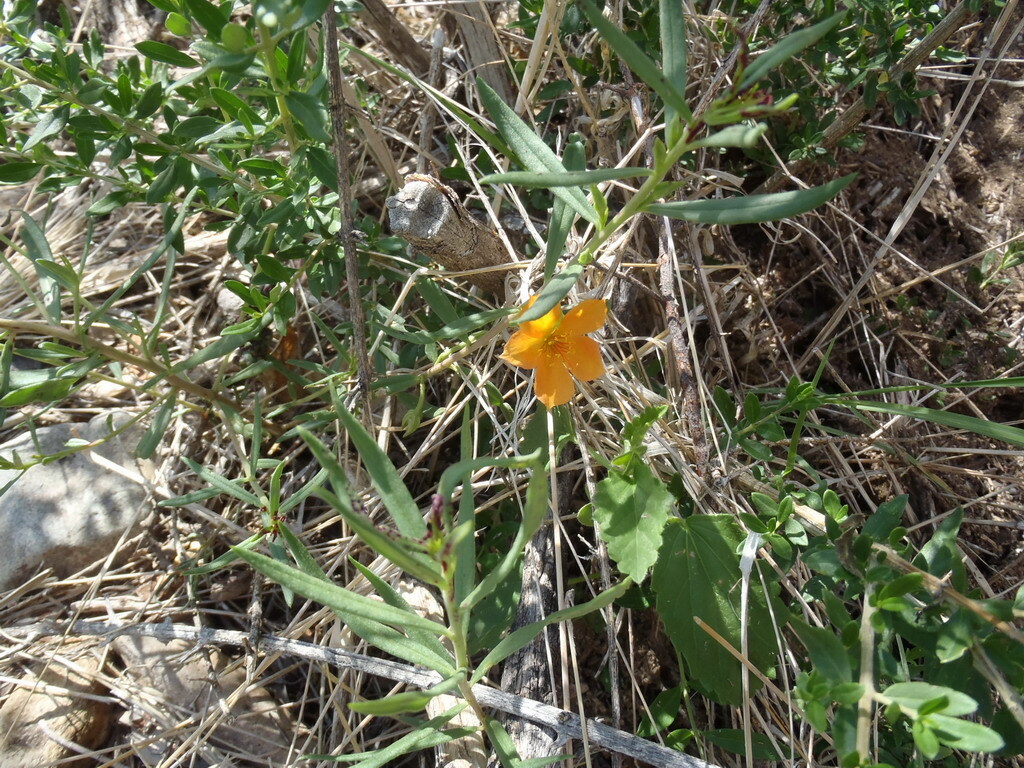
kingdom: Plantae
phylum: Tracheophyta
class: Magnoliopsida
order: Caryophyllales
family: Montiaceae
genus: Phemeranthus
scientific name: Phemeranthus aurantiacus
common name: Orange fameflower
